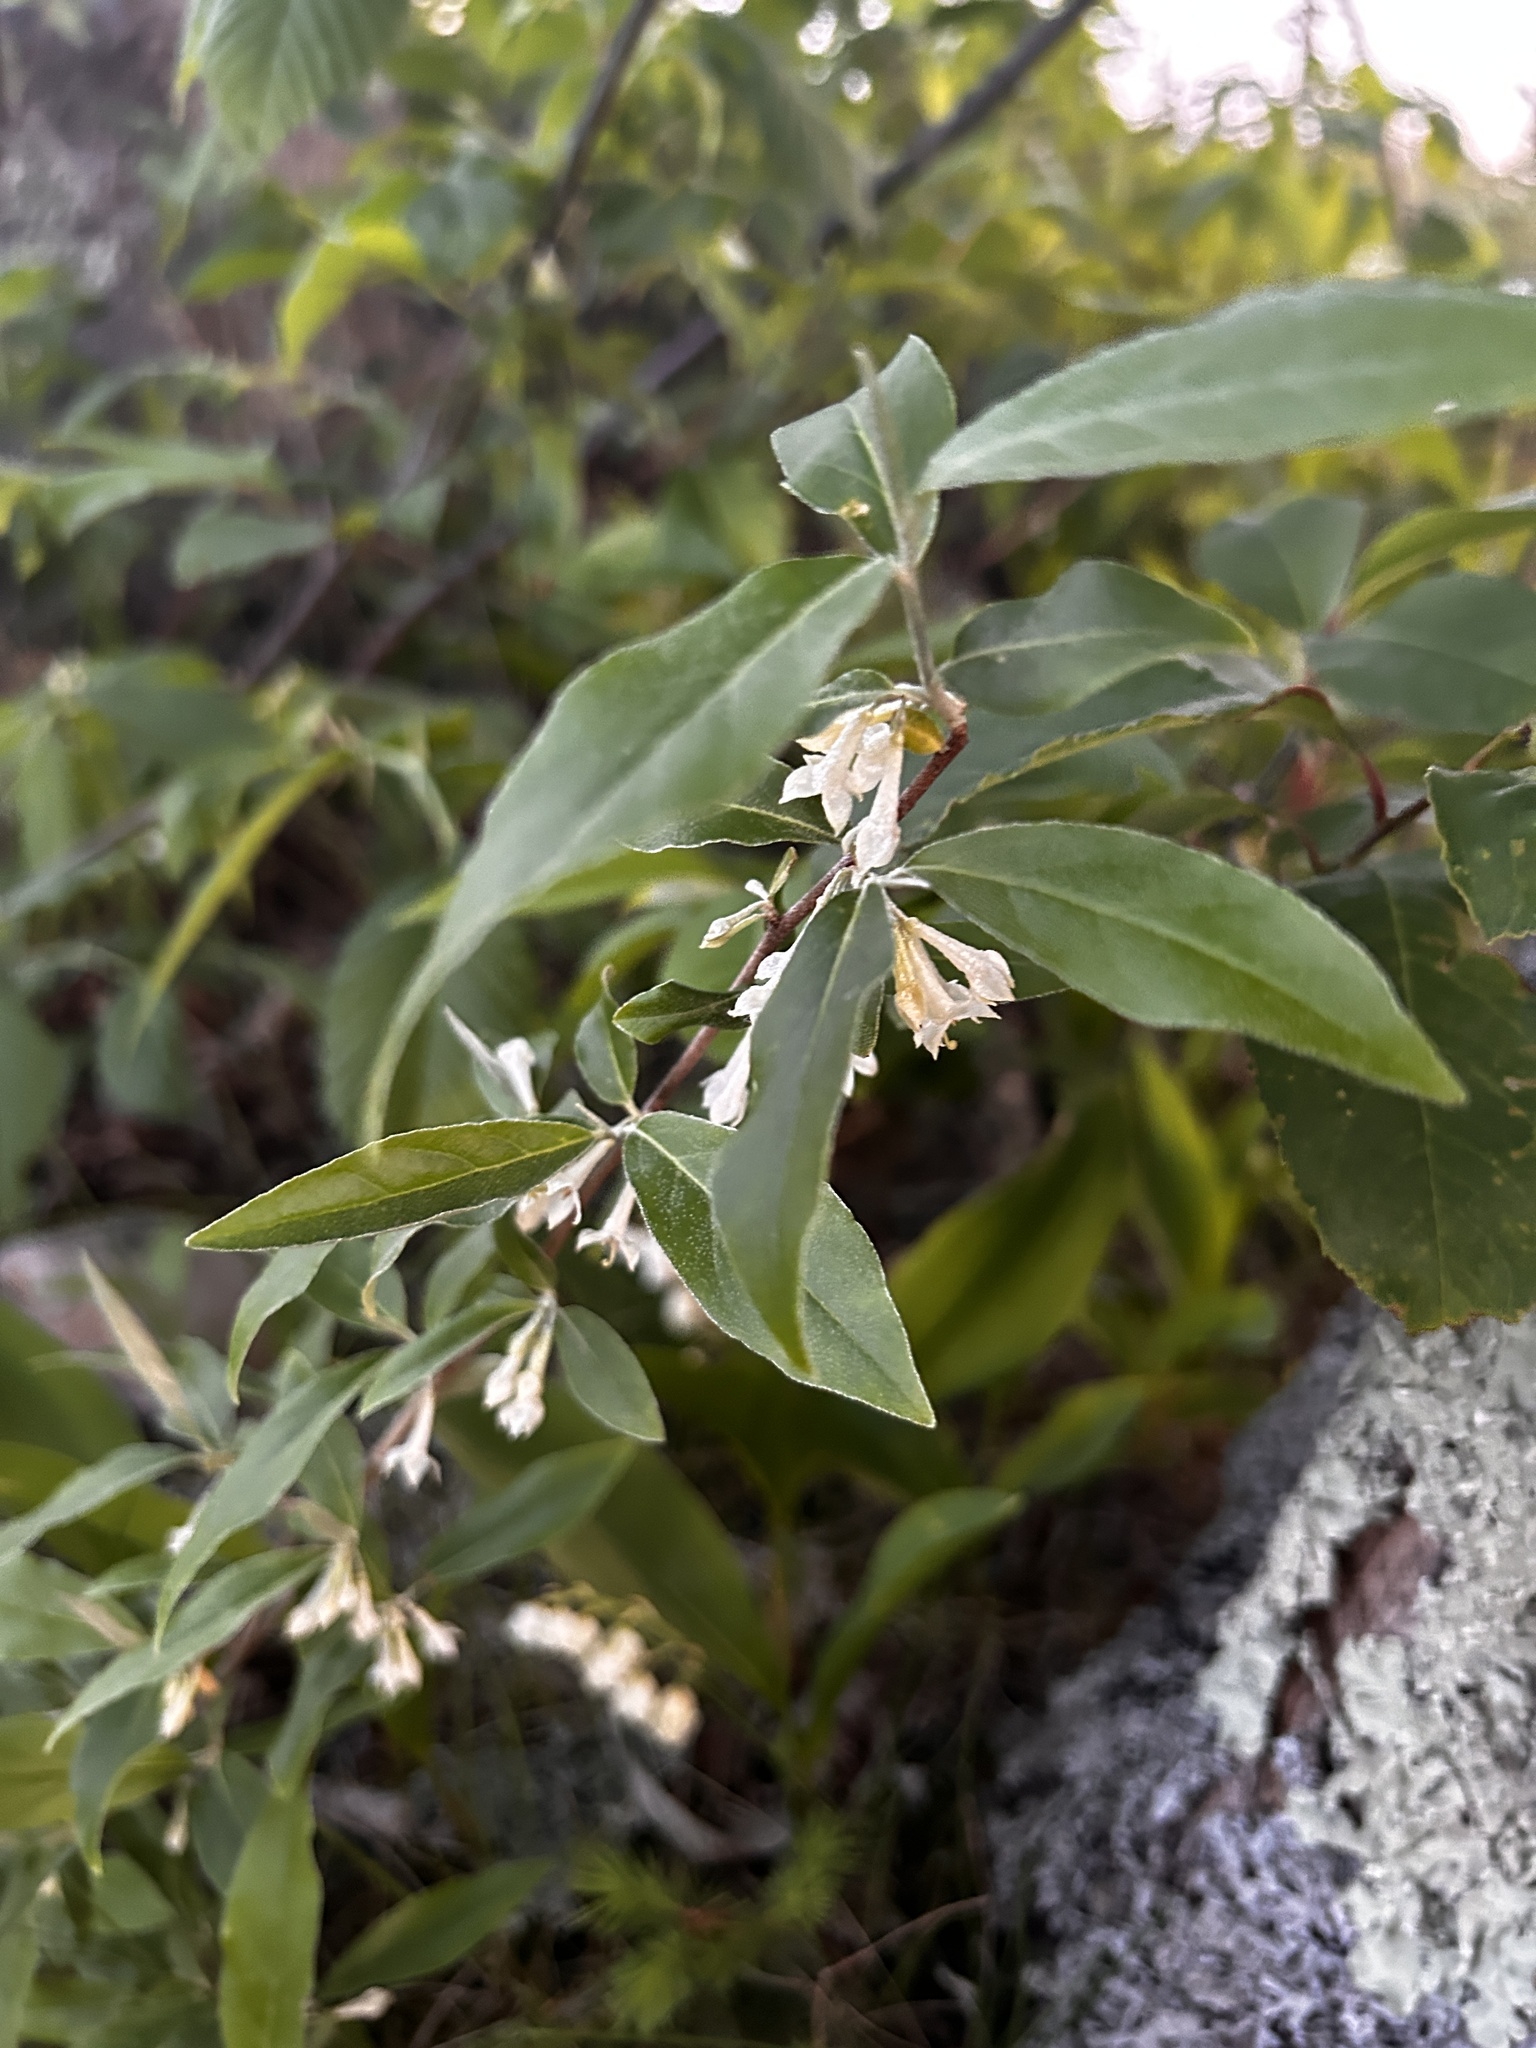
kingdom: Plantae
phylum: Tracheophyta
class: Magnoliopsida
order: Rosales
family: Elaeagnaceae
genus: Elaeagnus
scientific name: Elaeagnus umbellata
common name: Autumn olive
